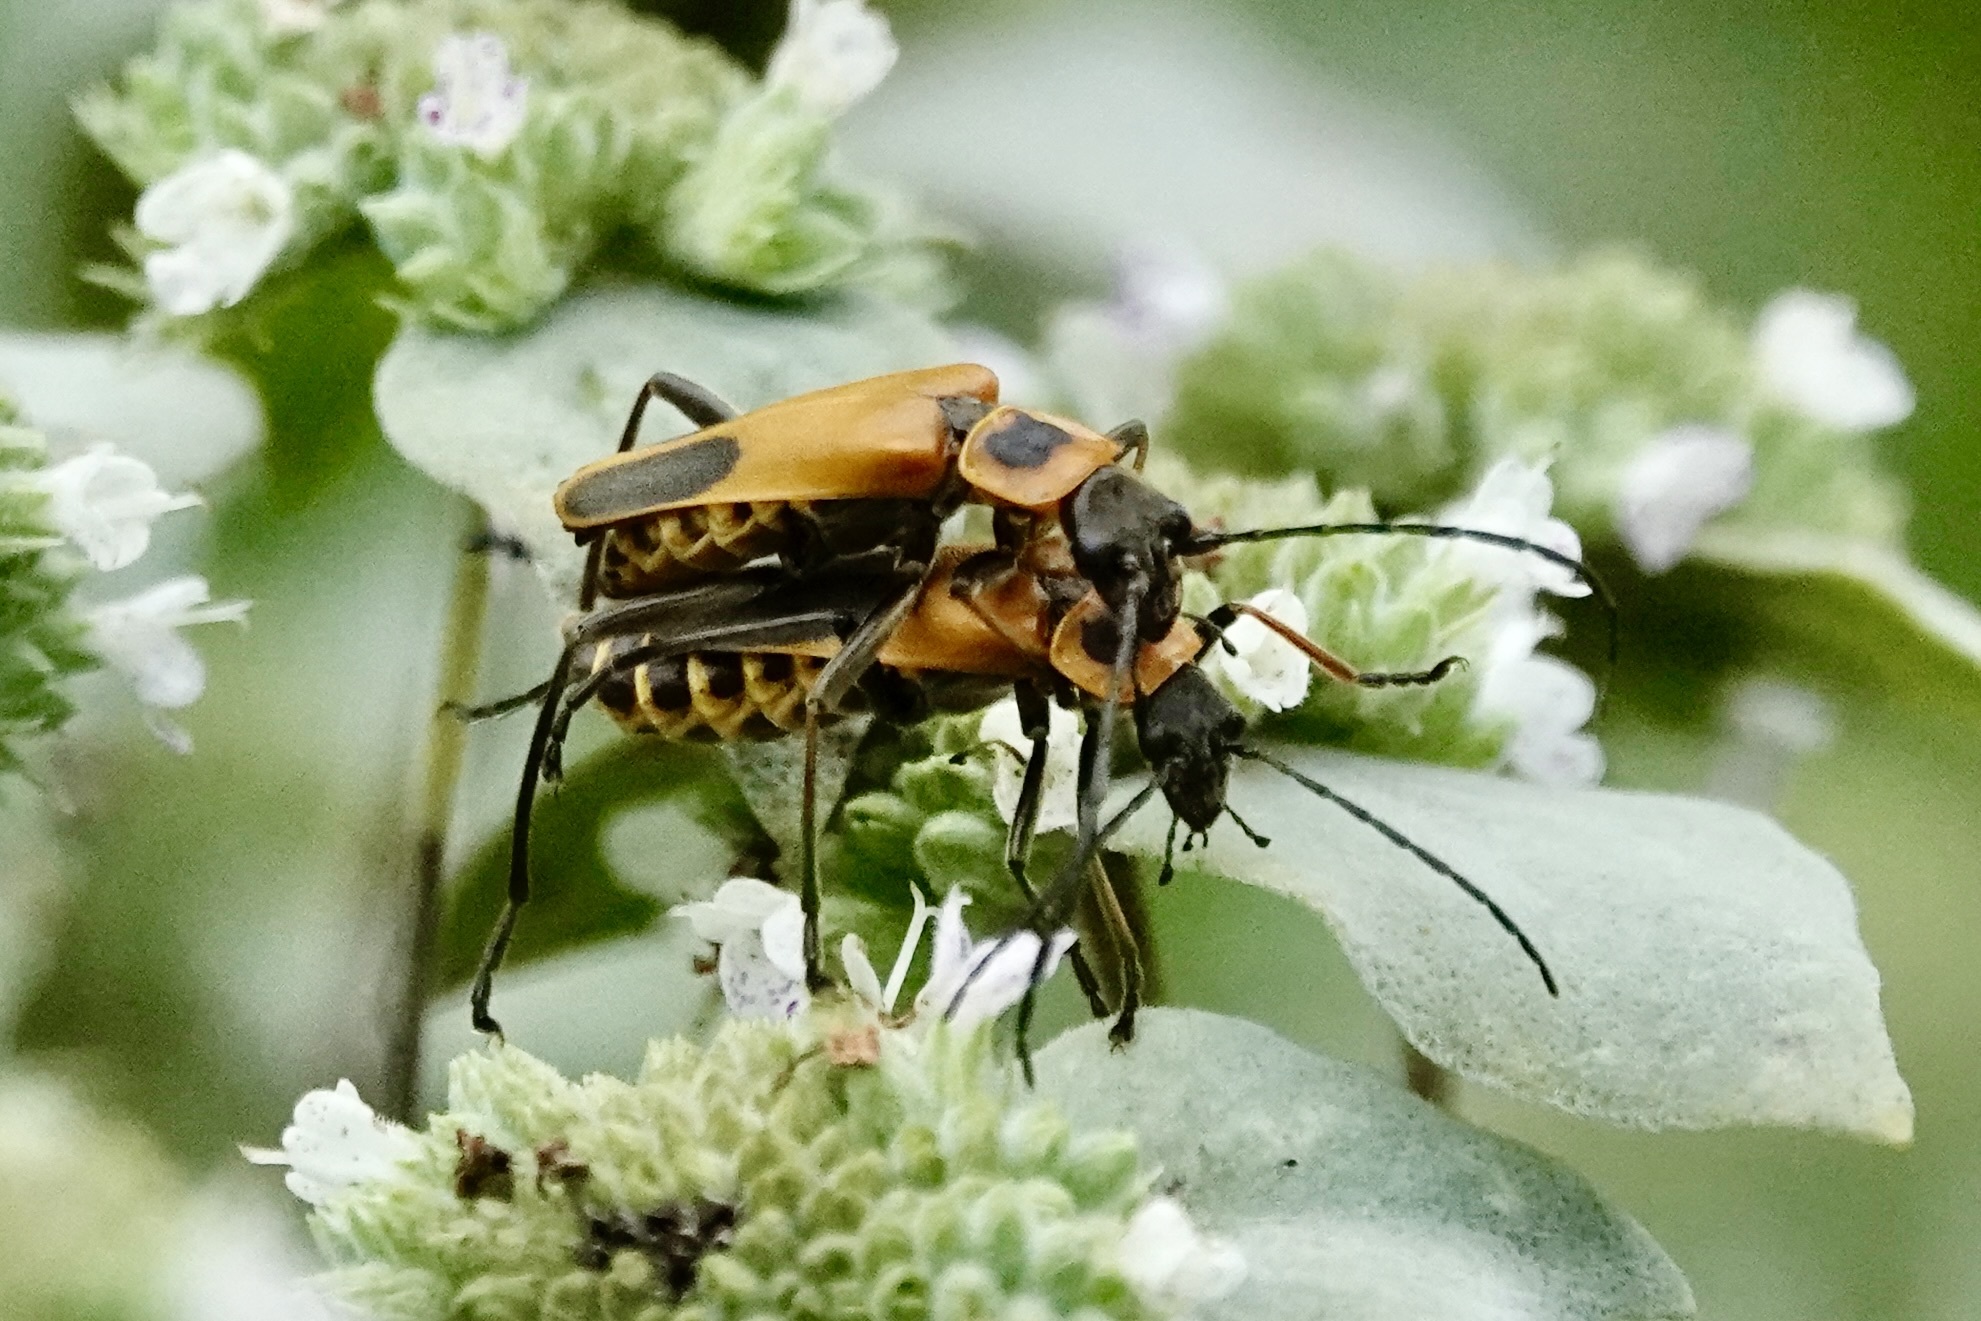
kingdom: Animalia
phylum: Arthropoda
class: Insecta
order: Coleoptera
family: Cantharidae
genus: Chauliognathus
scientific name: Chauliognathus pensylvanicus
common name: Goldenrod soldier beetle
